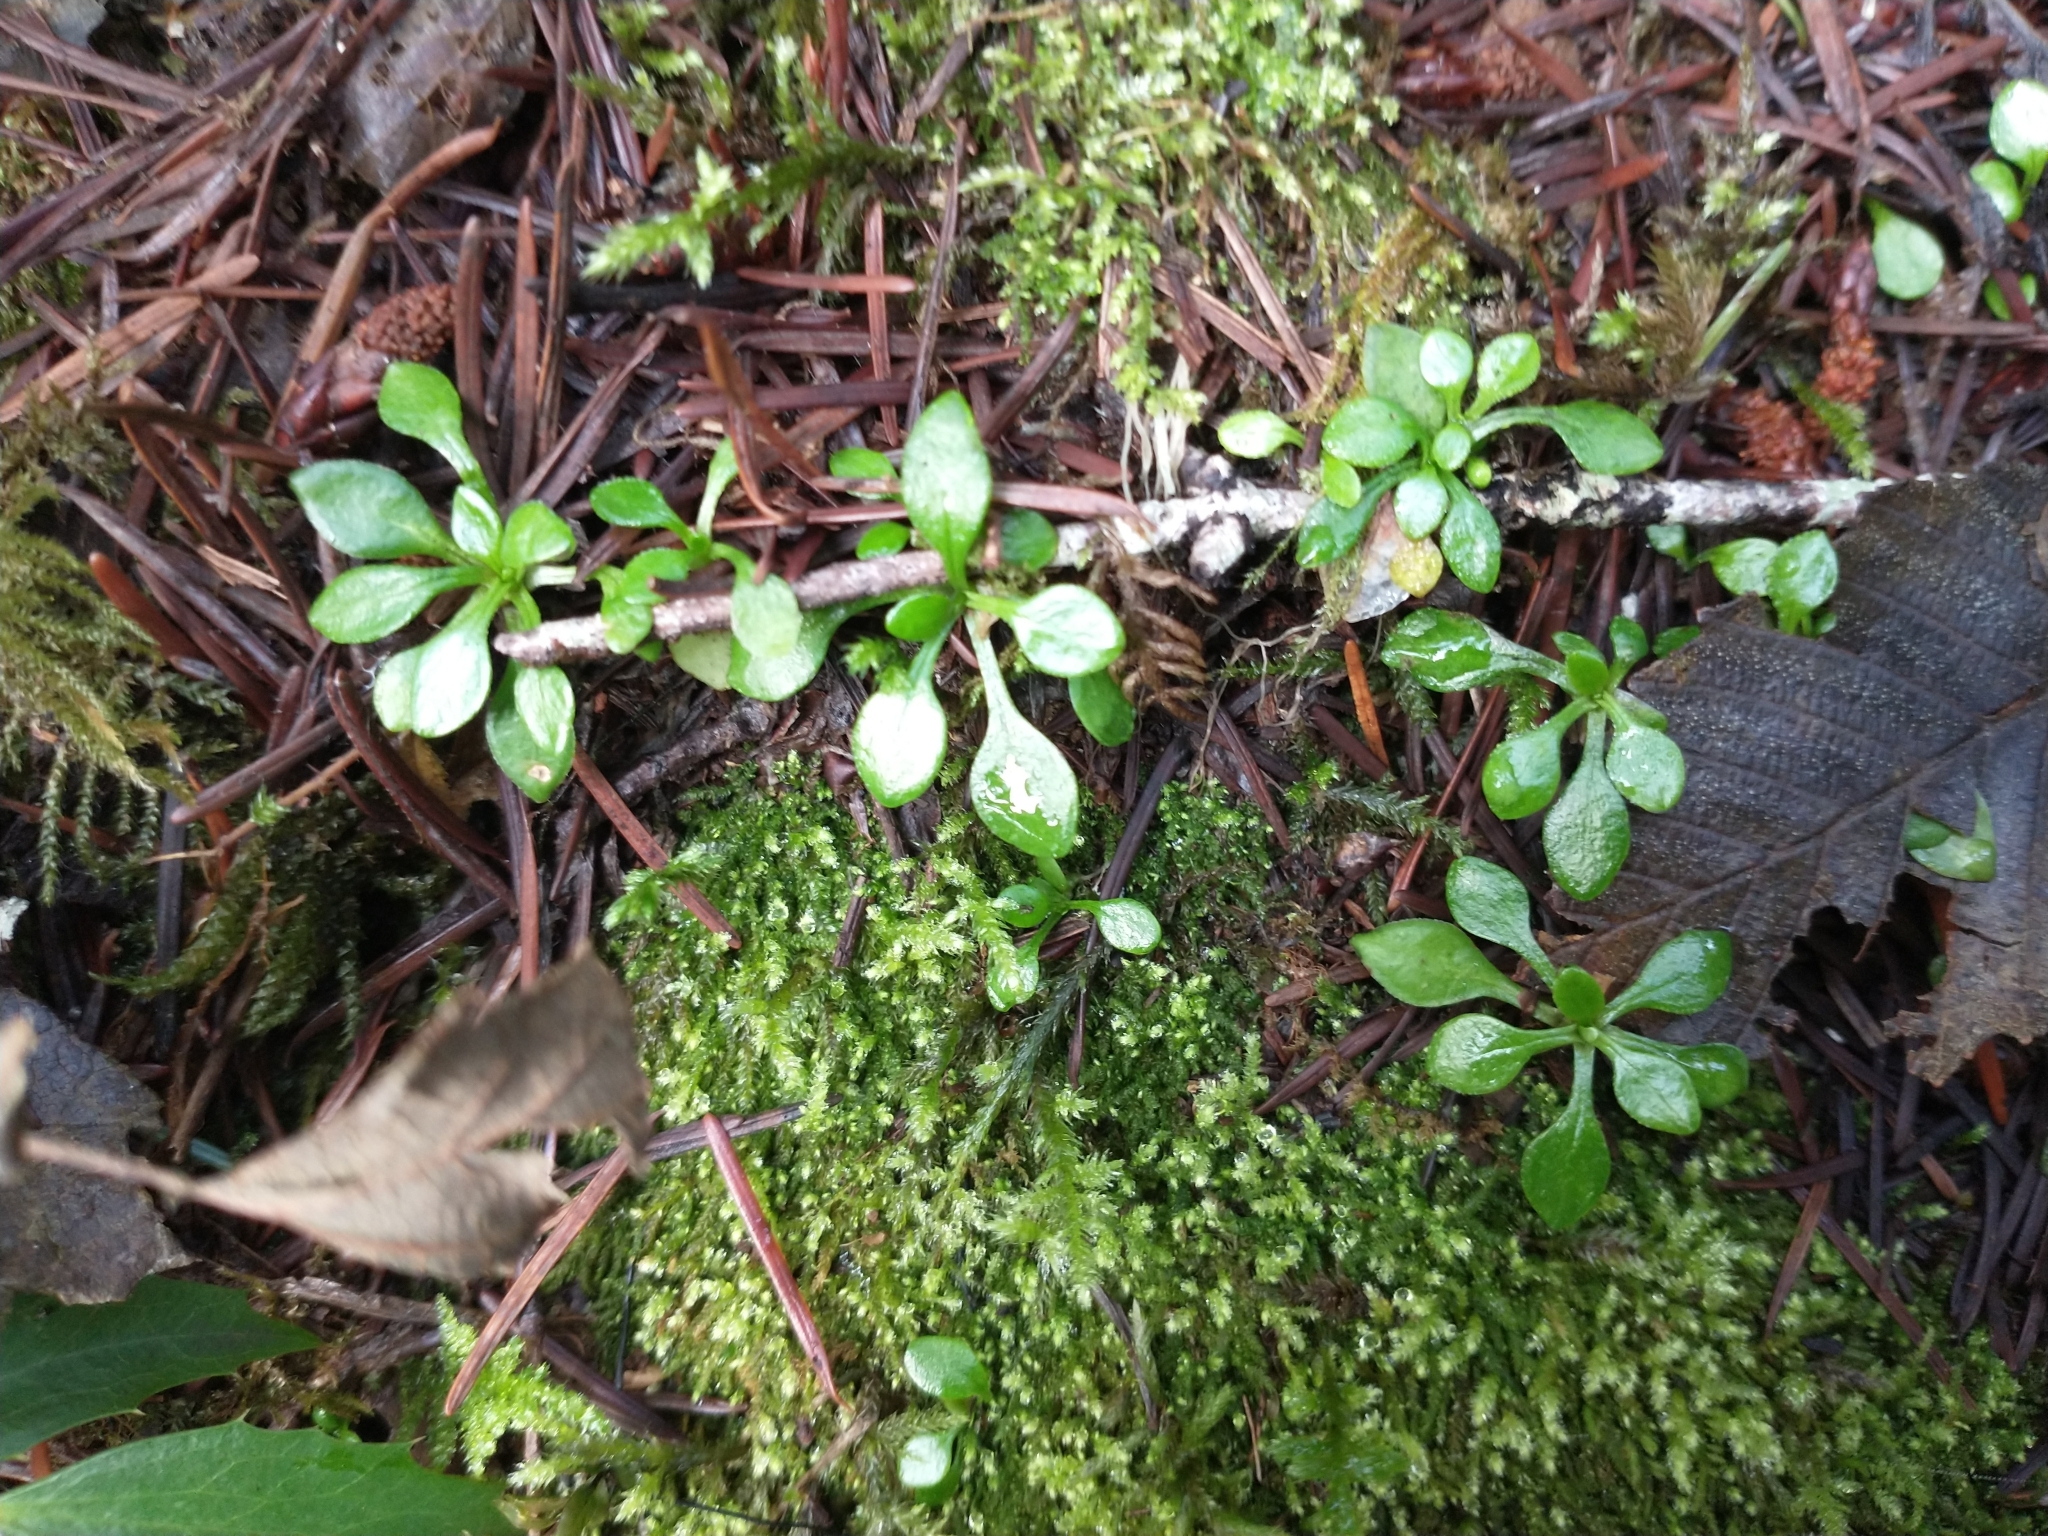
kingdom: Plantae
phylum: Tracheophyta
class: Magnoliopsida
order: Caryophyllales
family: Montiaceae
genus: Montia
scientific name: Montia parvifolia
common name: Small-leaved blinks
